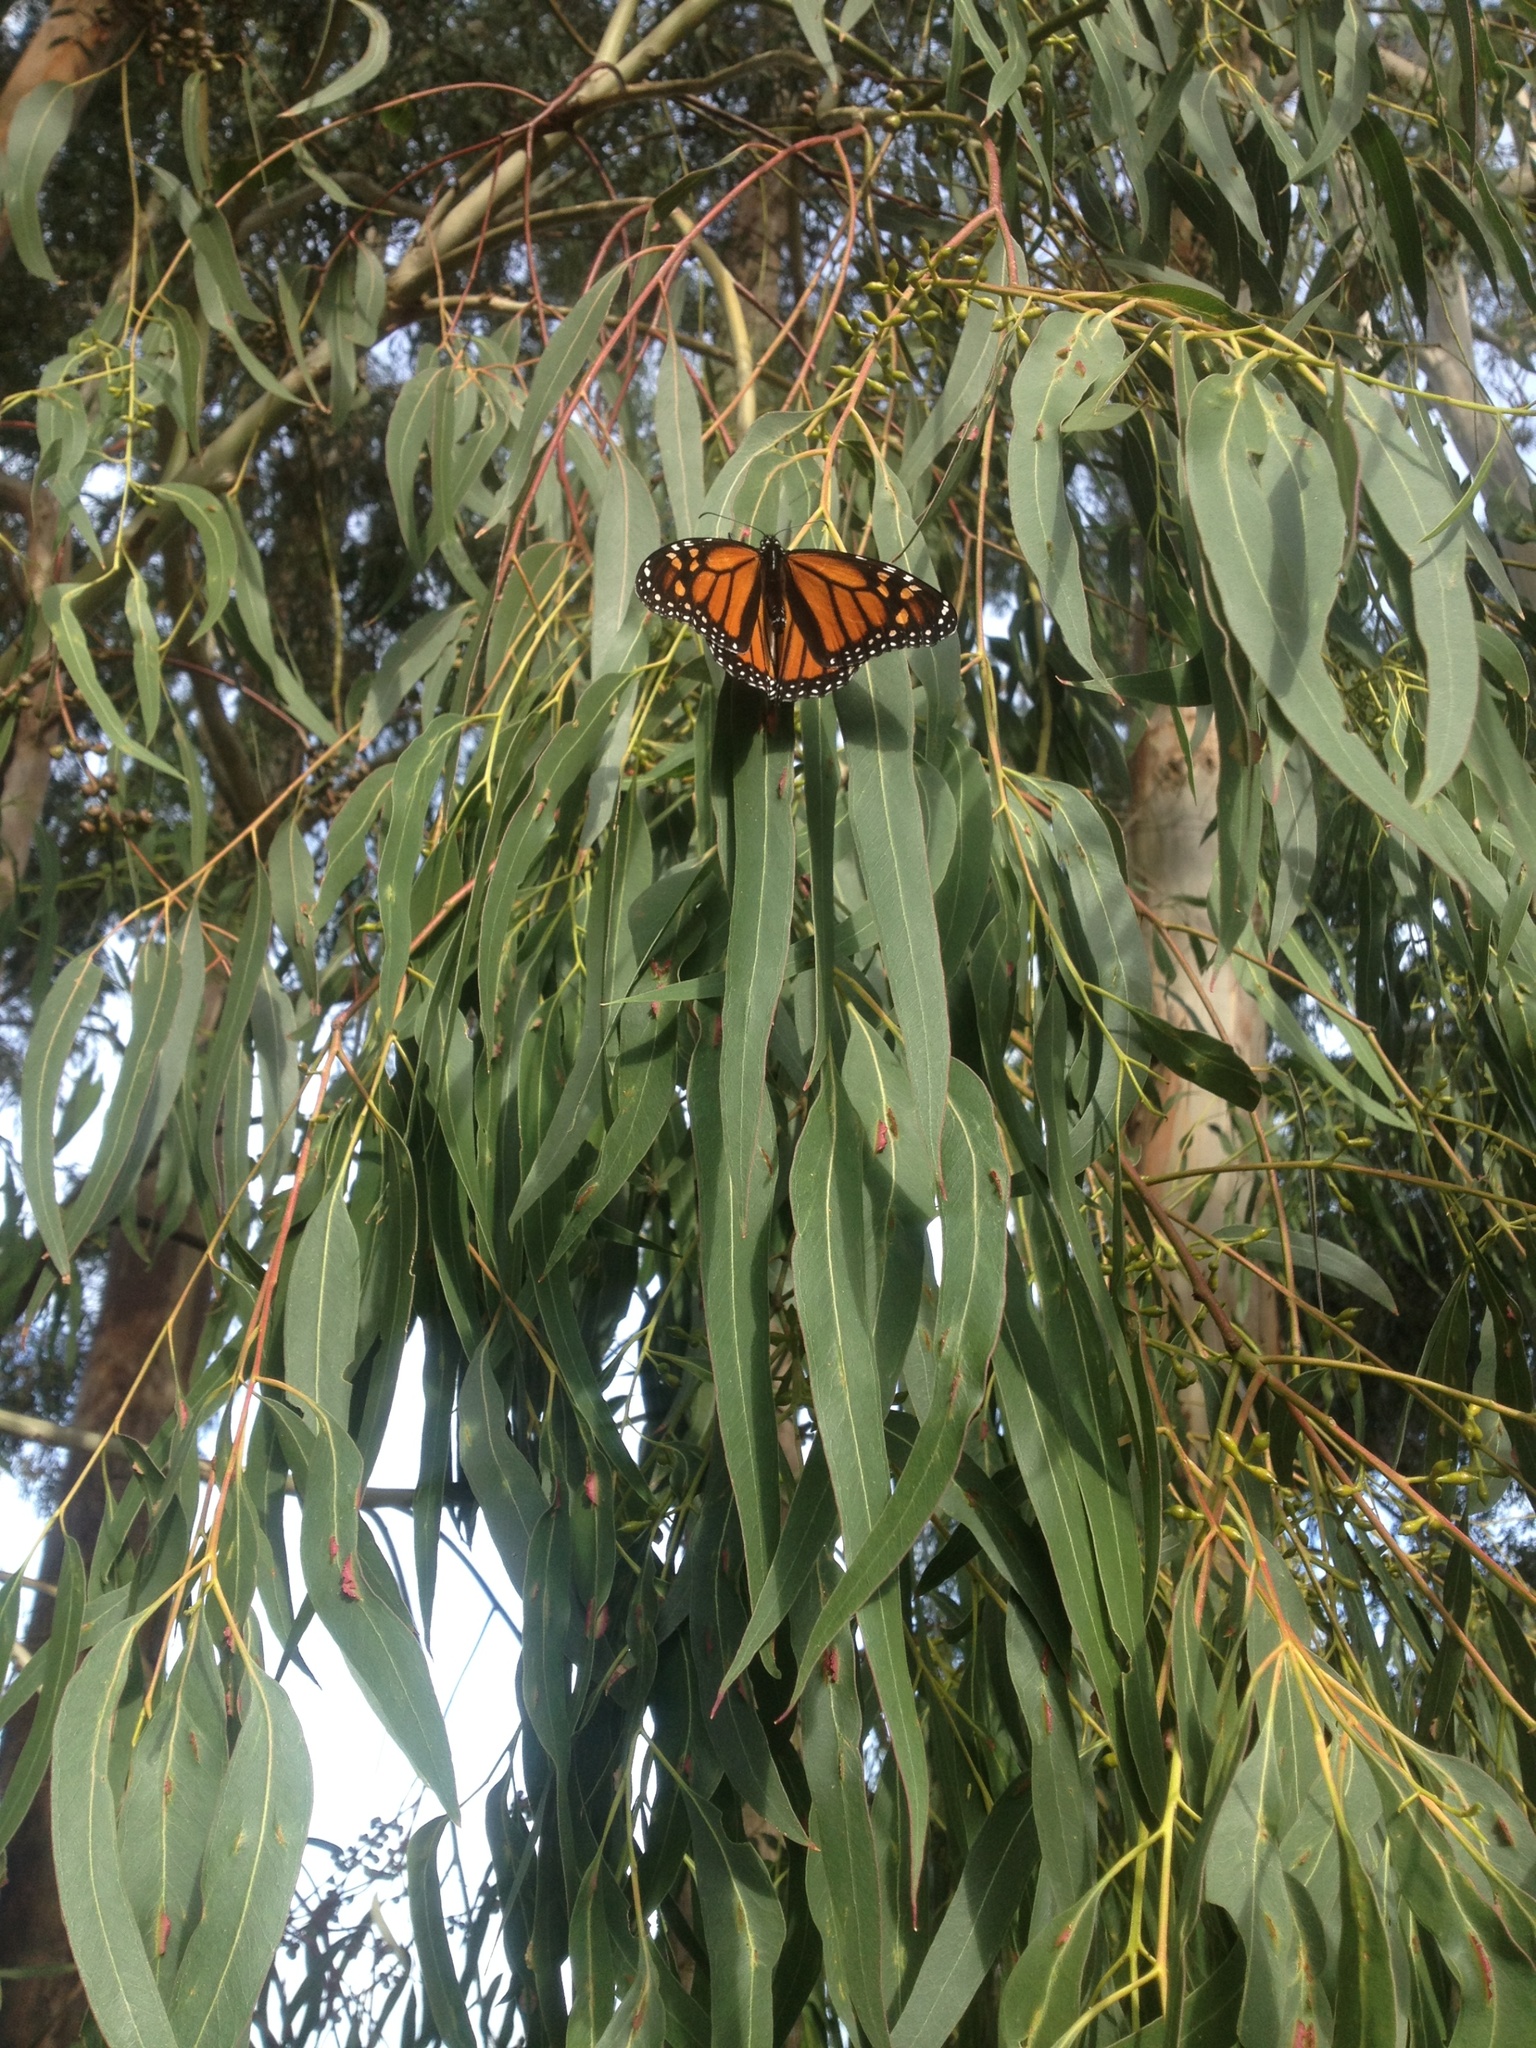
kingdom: Animalia
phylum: Arthropoda
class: Insecta
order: Lepidoptera
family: Nymphalidae
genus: Danaus
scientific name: Danaus plexippus
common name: Monarch
